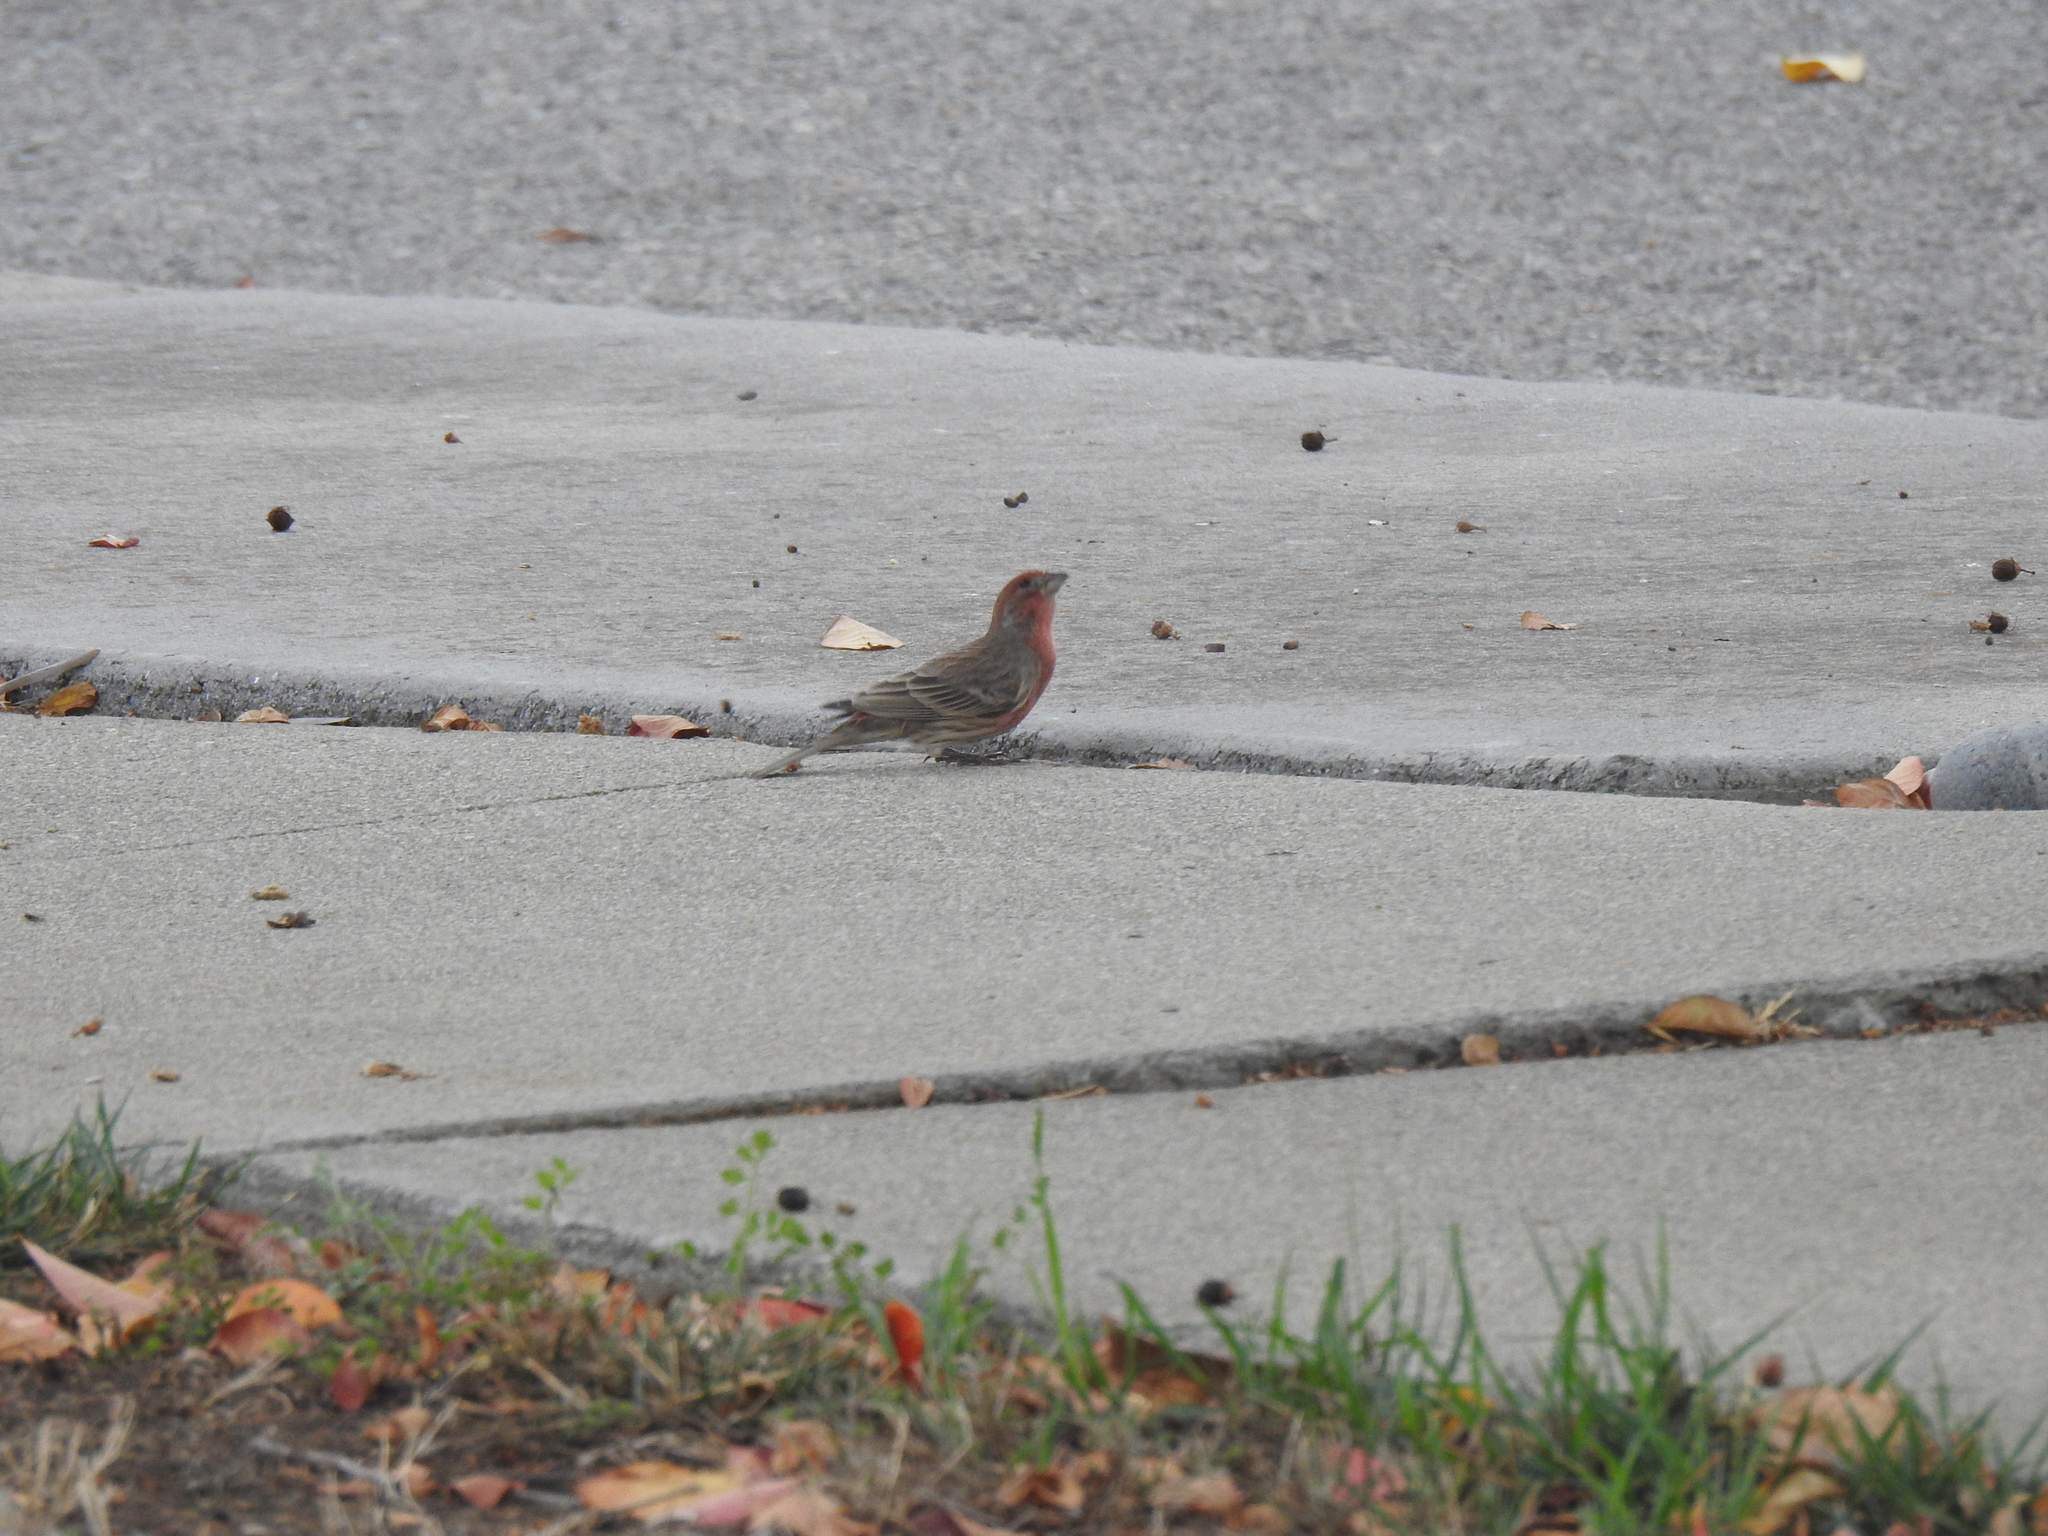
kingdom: Animalia
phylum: Chordata
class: Aves
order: Passeriformes
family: Fringillidae
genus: Haemorhous
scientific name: Haemorhous mexicanus
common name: House finch
